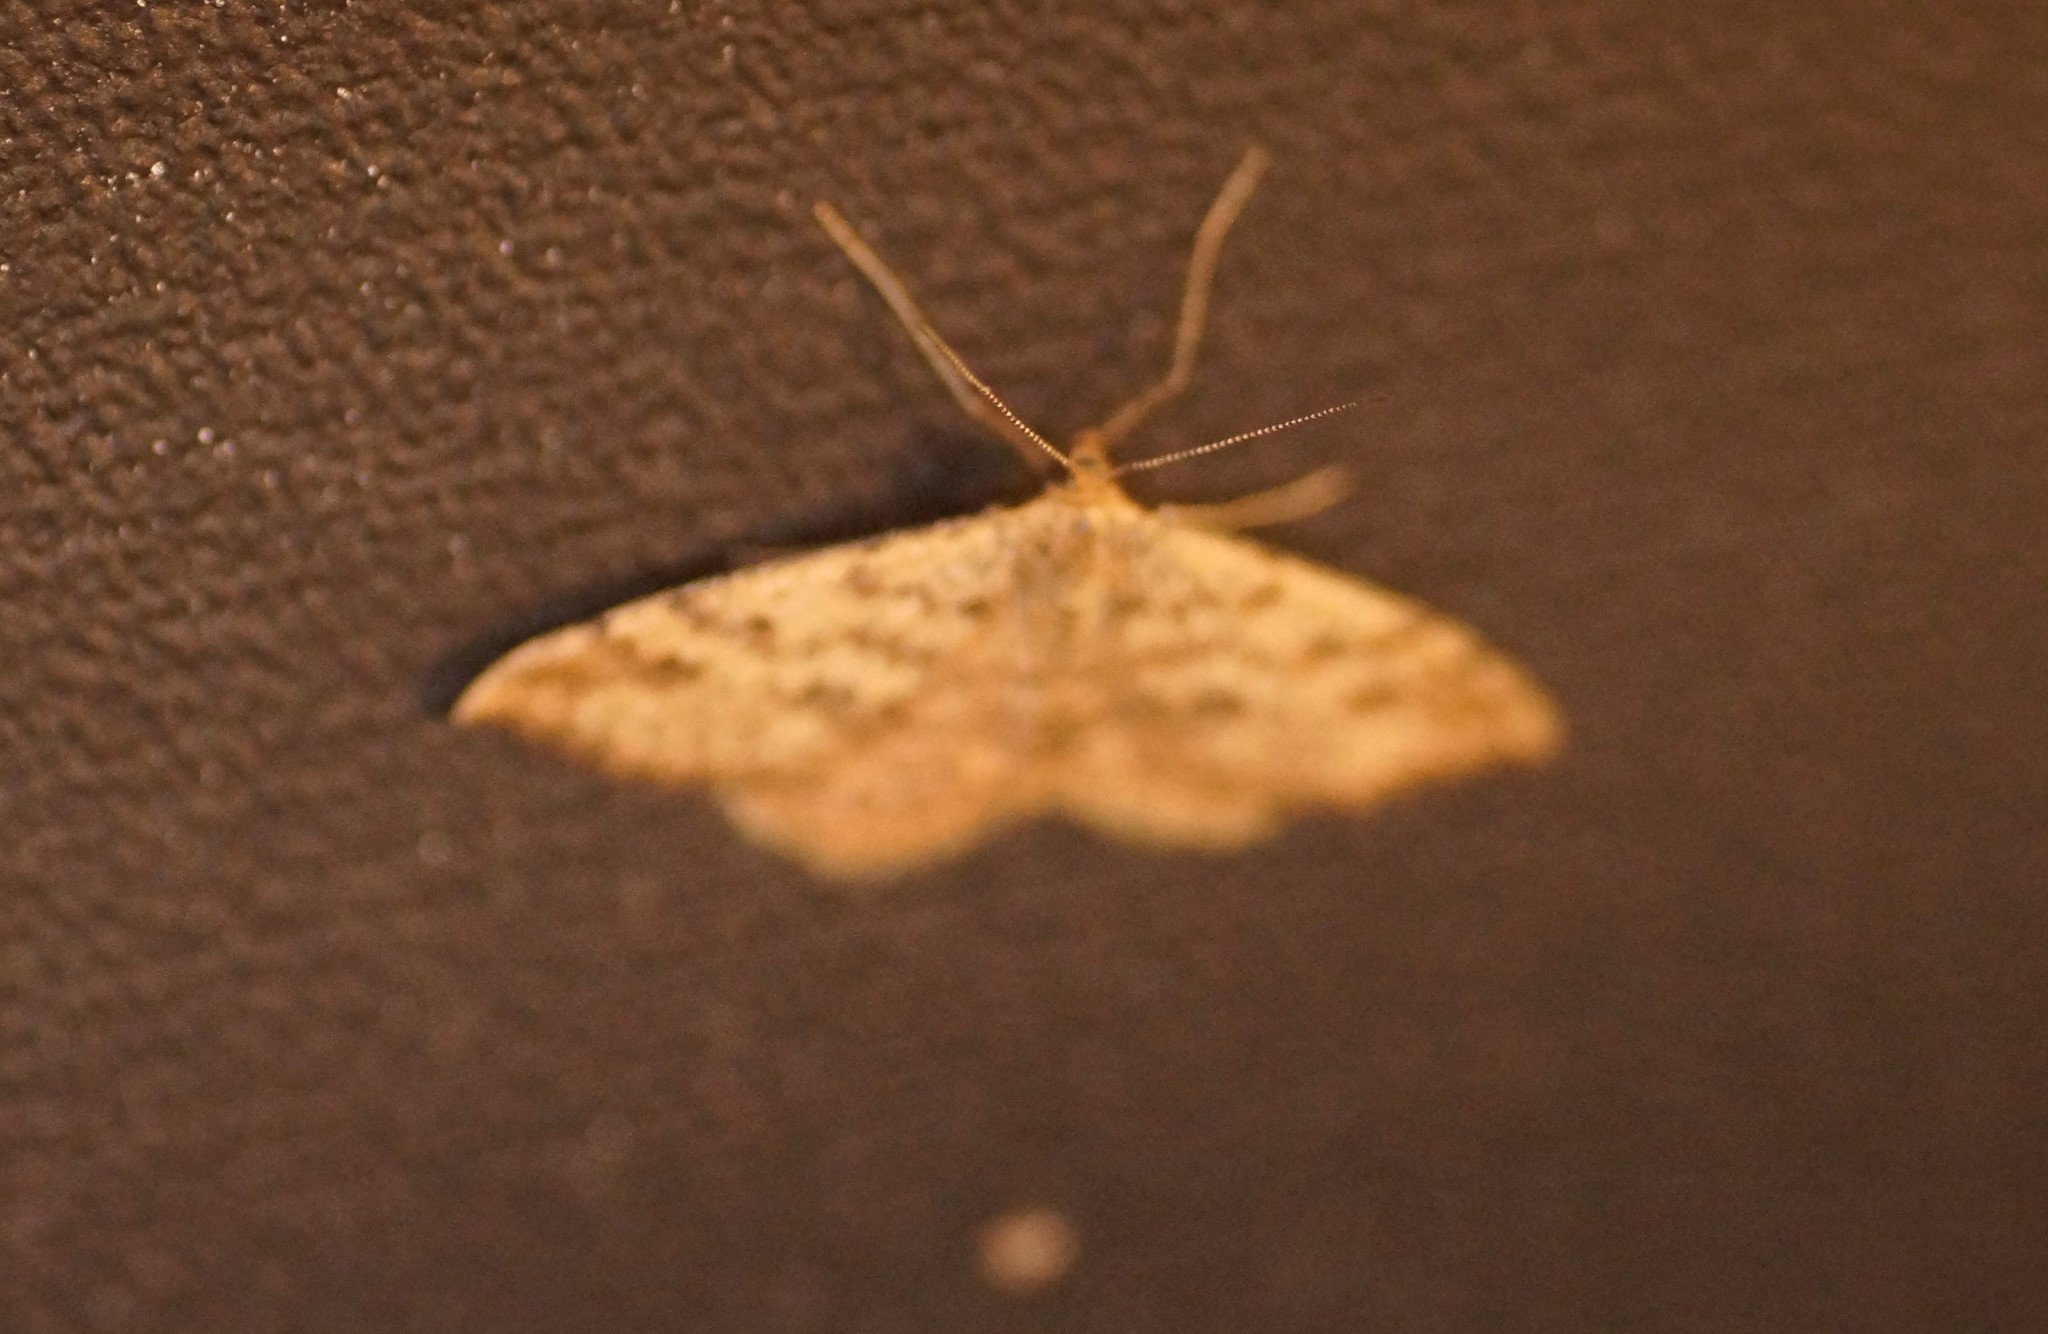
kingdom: Animalia
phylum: Arthropoda
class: Insecta
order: Lepidoptera
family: Geometridae
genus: Scopula
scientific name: Scopula rubraria
